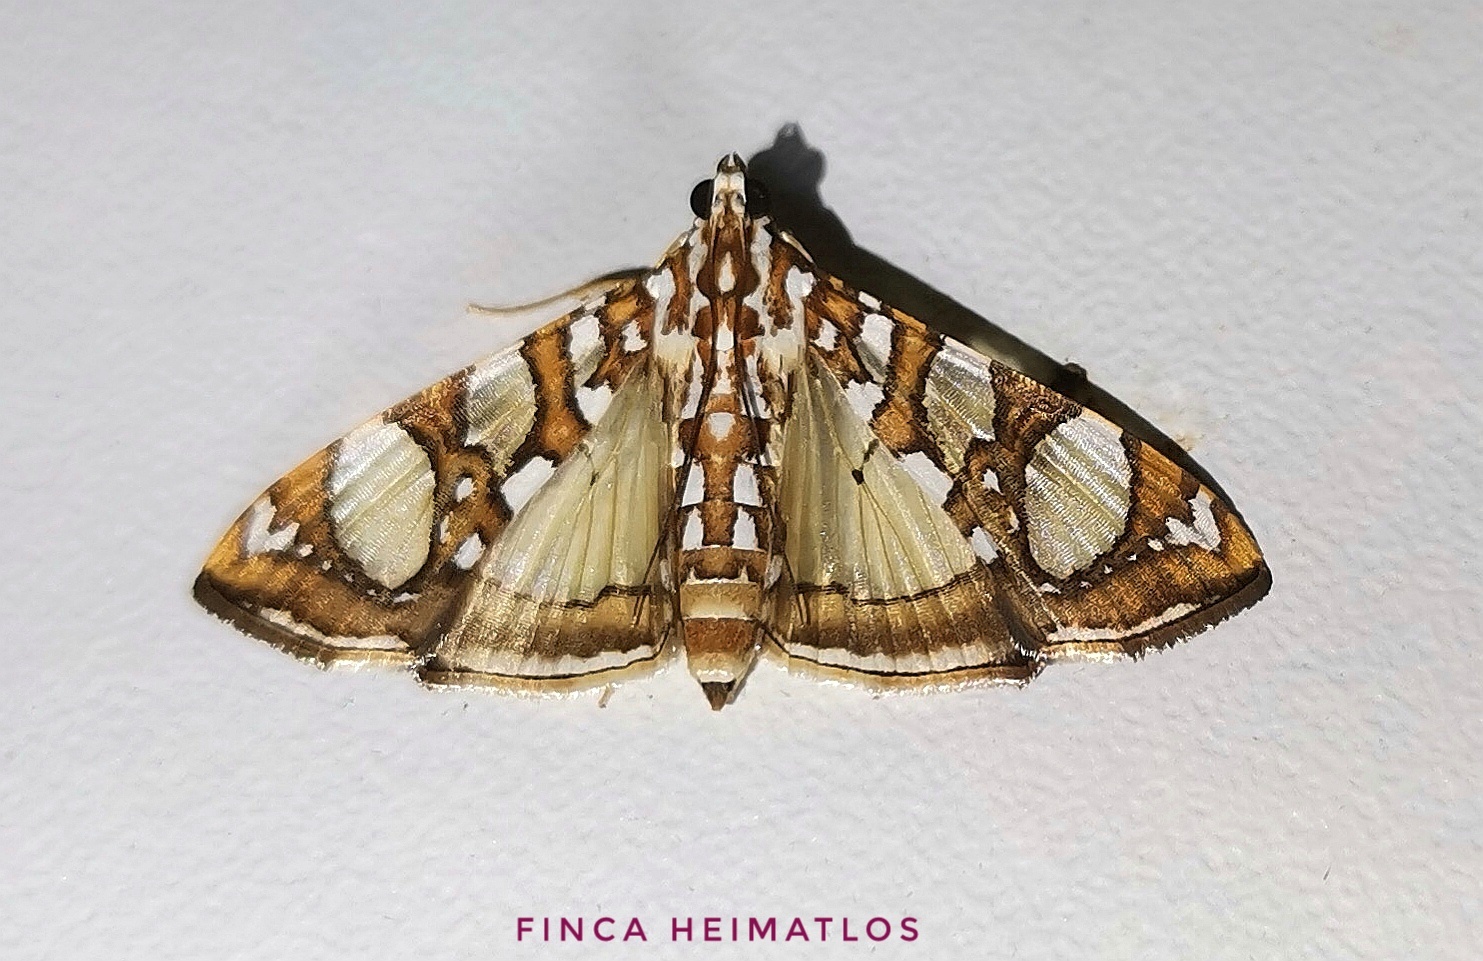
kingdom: Animalia
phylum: Arthropoda
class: Insecta
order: Lepidoptera
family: Crambidae
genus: Glyphodes
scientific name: Glyphodes sibillalis
